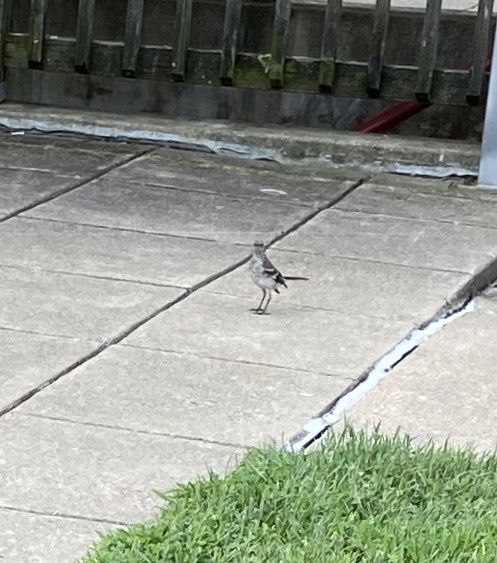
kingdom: Animalia
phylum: Chordata
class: Aves
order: Passeriformes
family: Mimidae
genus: Mimus
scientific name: Mimus polyglottos
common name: Northern mockingbird
